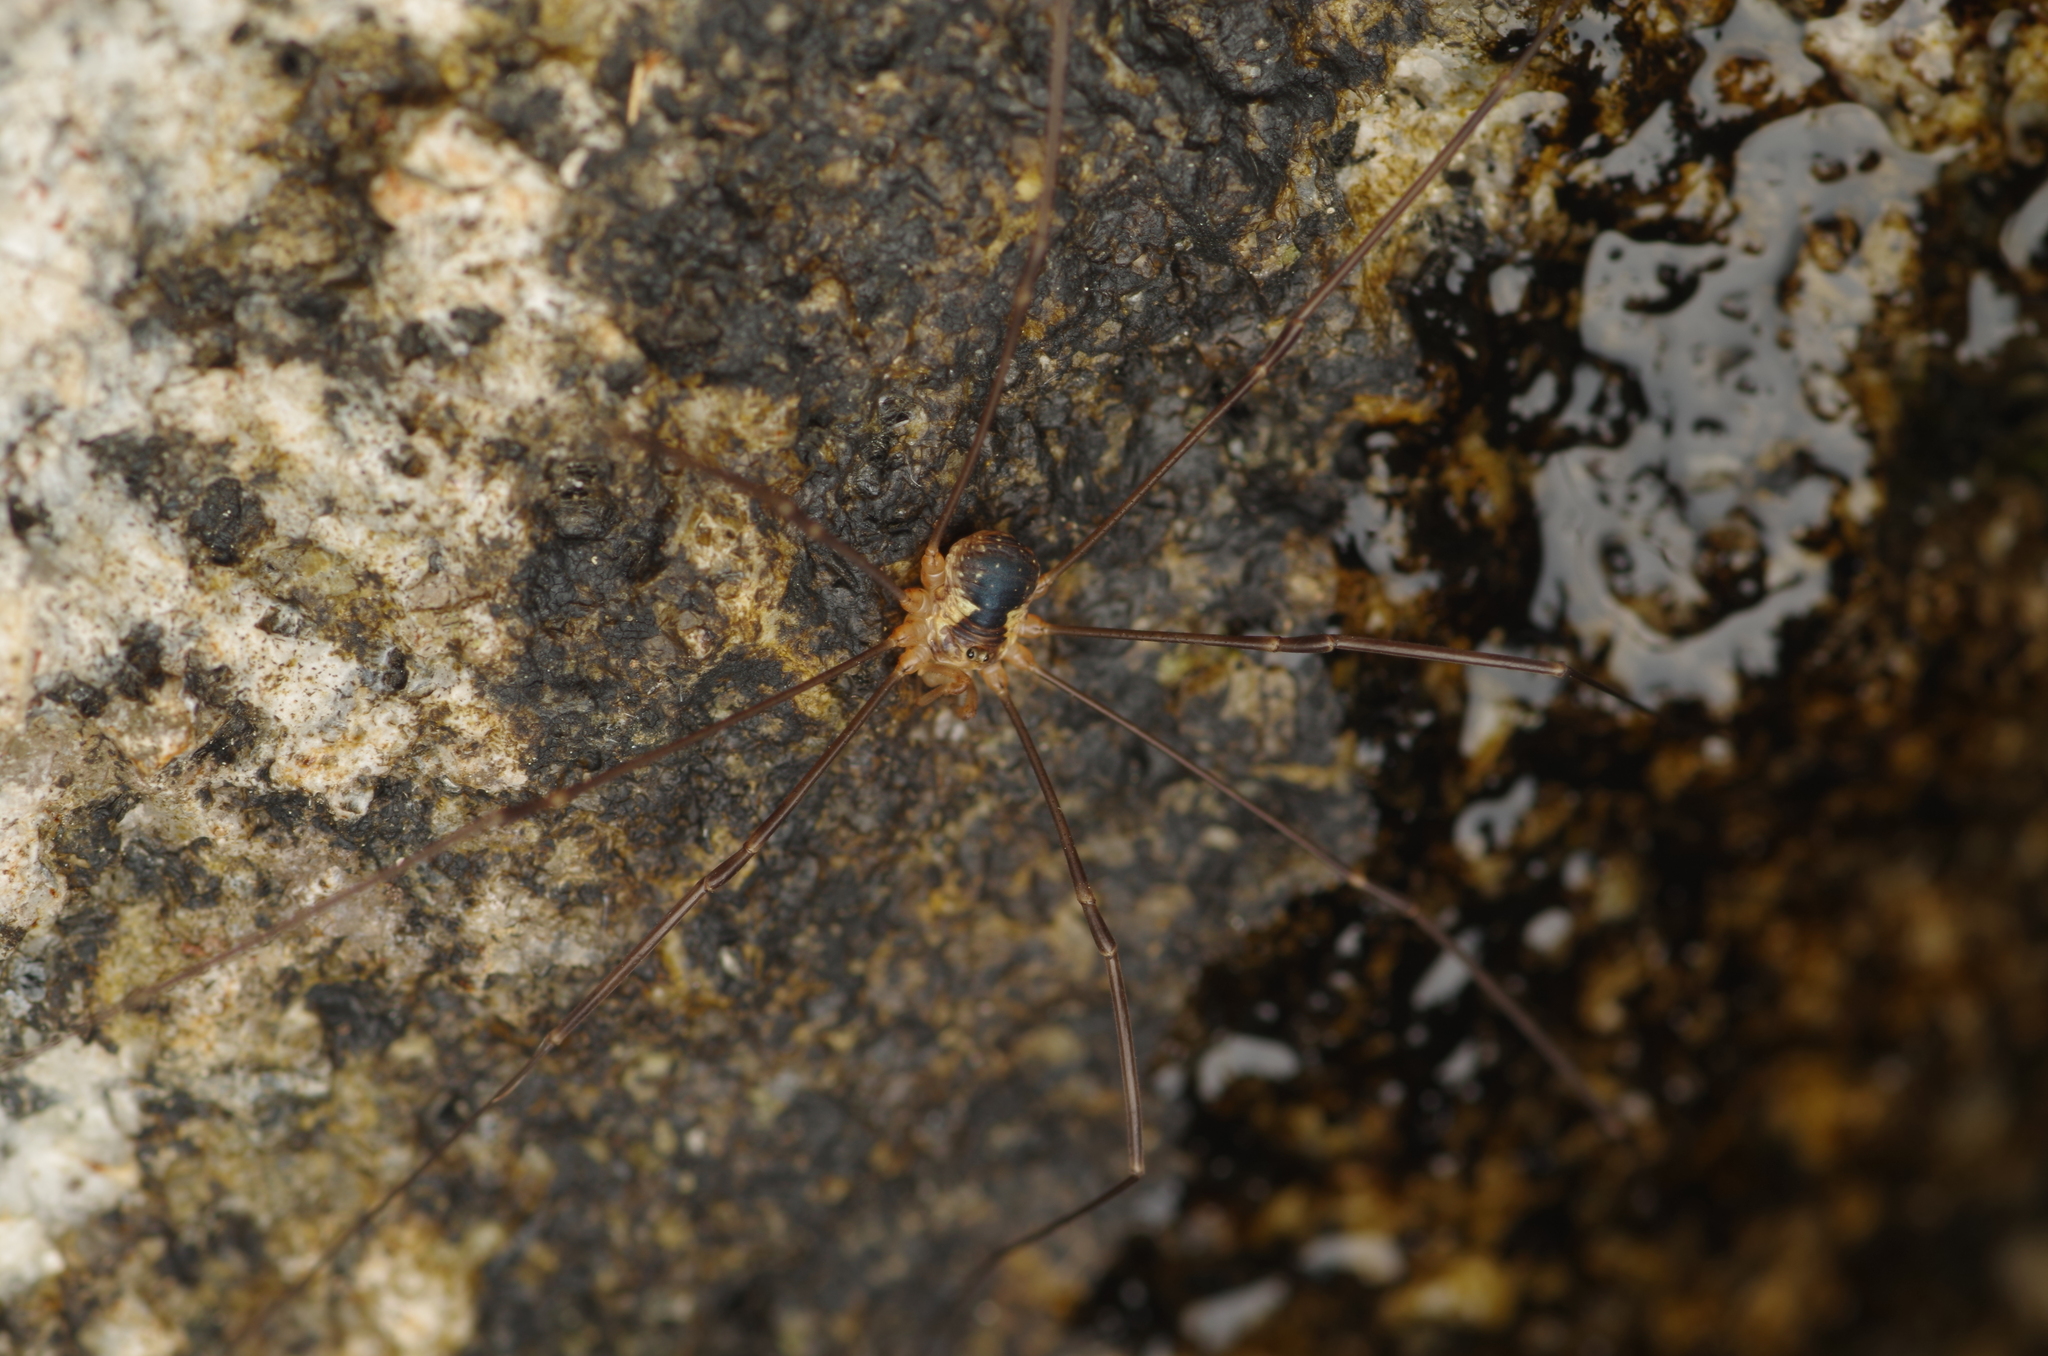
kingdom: Animalia
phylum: Arthropoda
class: Arachnida
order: Opiliones
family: Phalangiidae
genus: Dicranopalpus
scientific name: Dicranopalpus pyrenaeus
